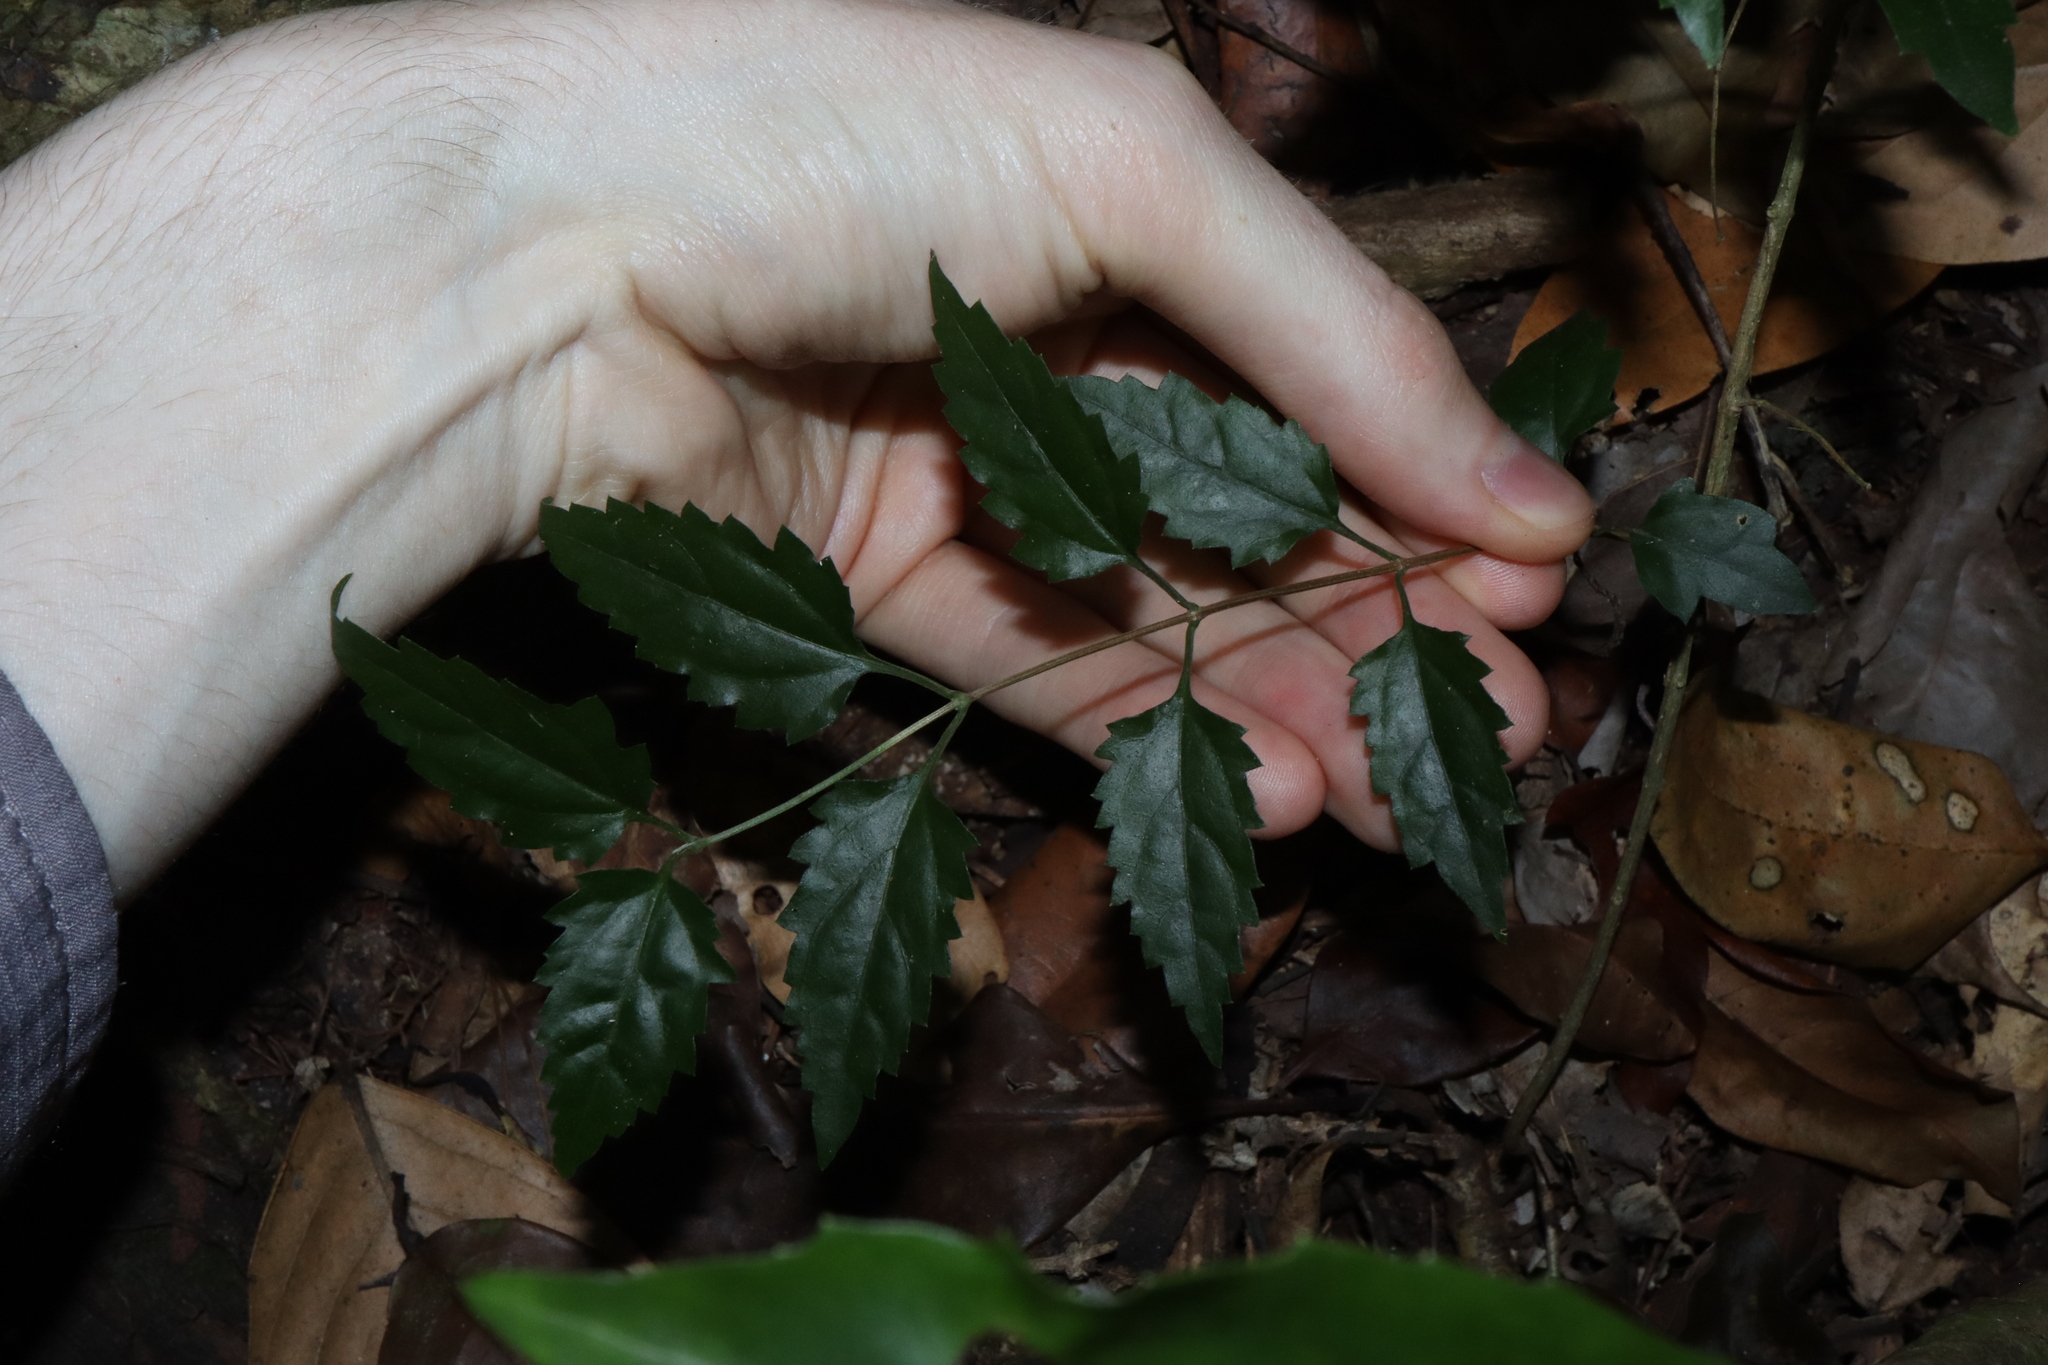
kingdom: Plantae
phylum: Tracheophyta
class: Magnoliopsida
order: Lamiales
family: Lamiaceae
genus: Glossocarya
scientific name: Glossocarya hemiderma
